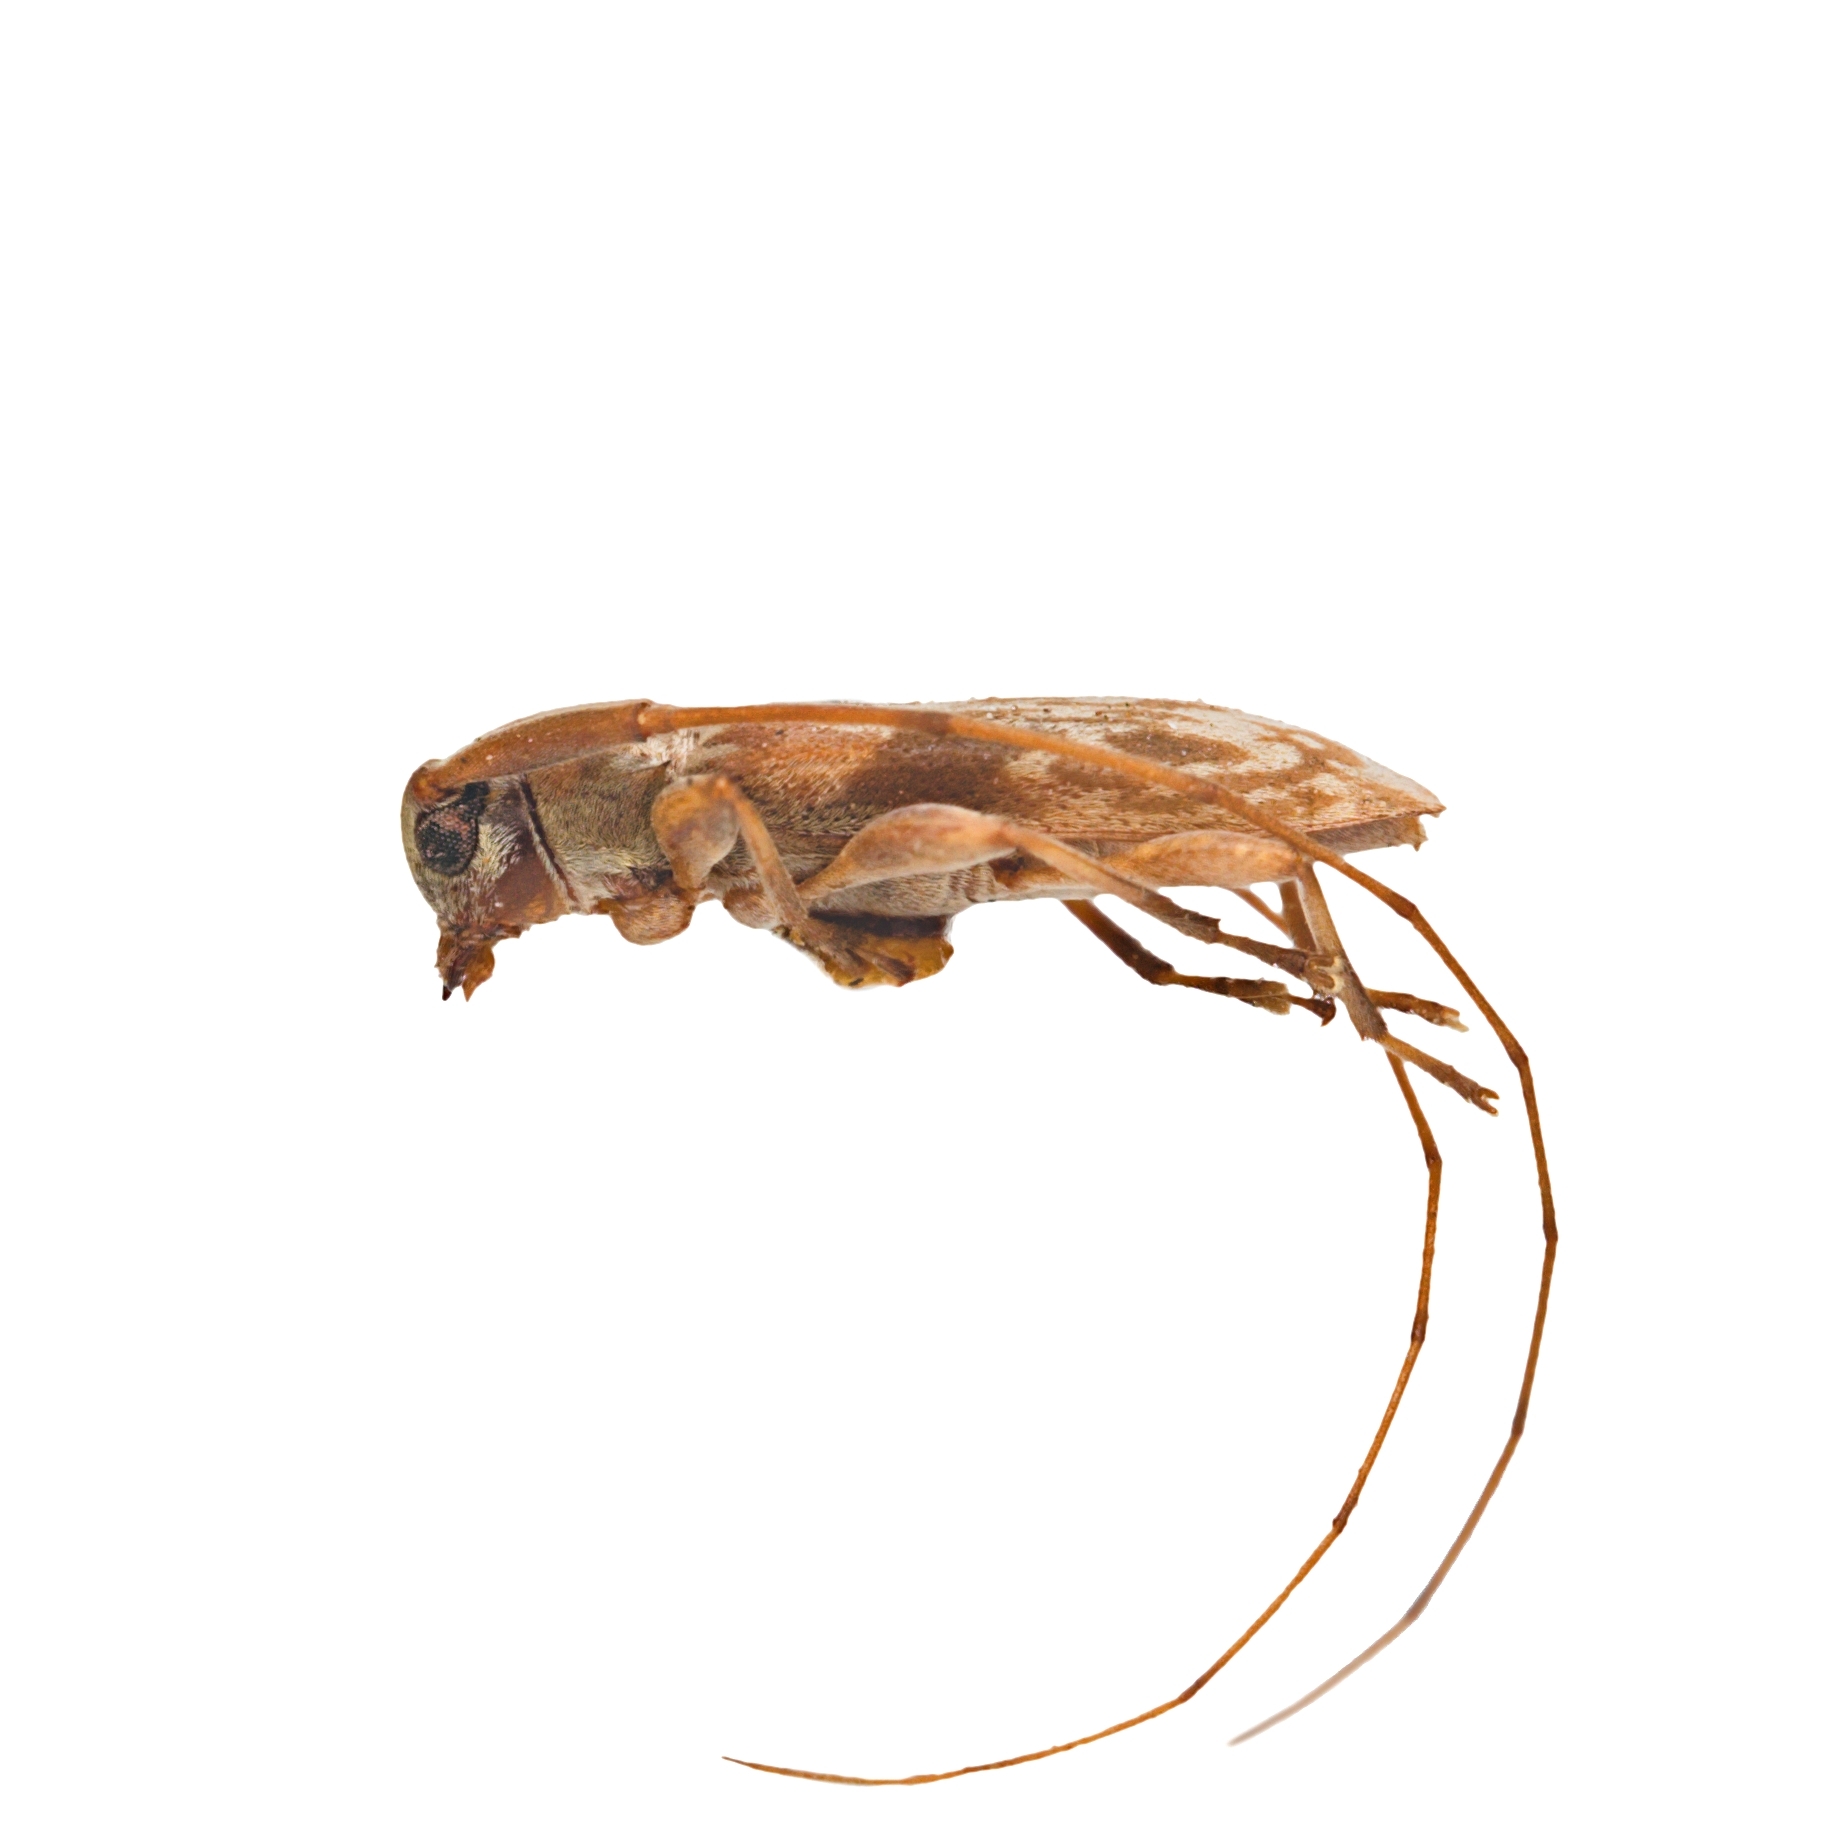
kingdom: Animalia
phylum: Arthropoda
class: Insecta
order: Coleoptera
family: Cerambycidae
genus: Urgleptes
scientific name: Urgleptes celtis
